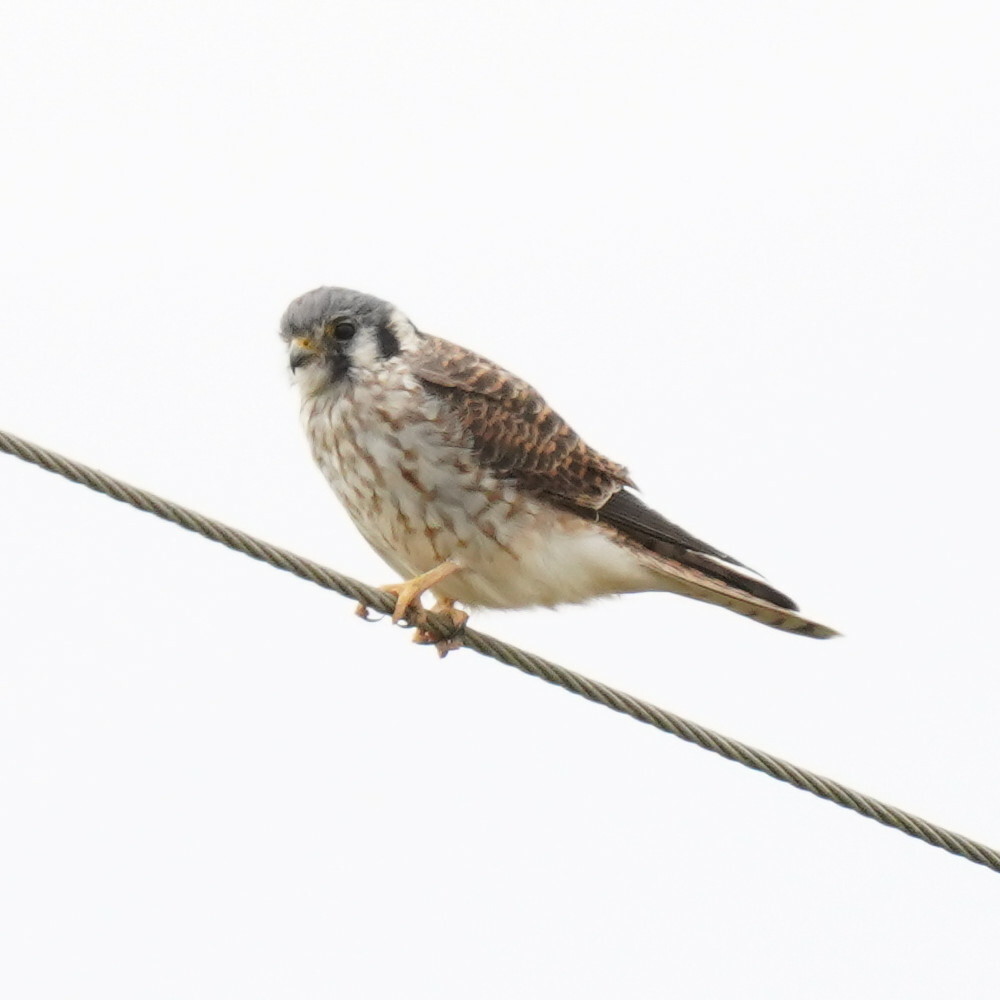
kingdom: Animalia
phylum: Chordata
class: Aves
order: Falconiformes
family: Falconidae
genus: Falco
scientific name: Falco sparverius
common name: American kestrel
